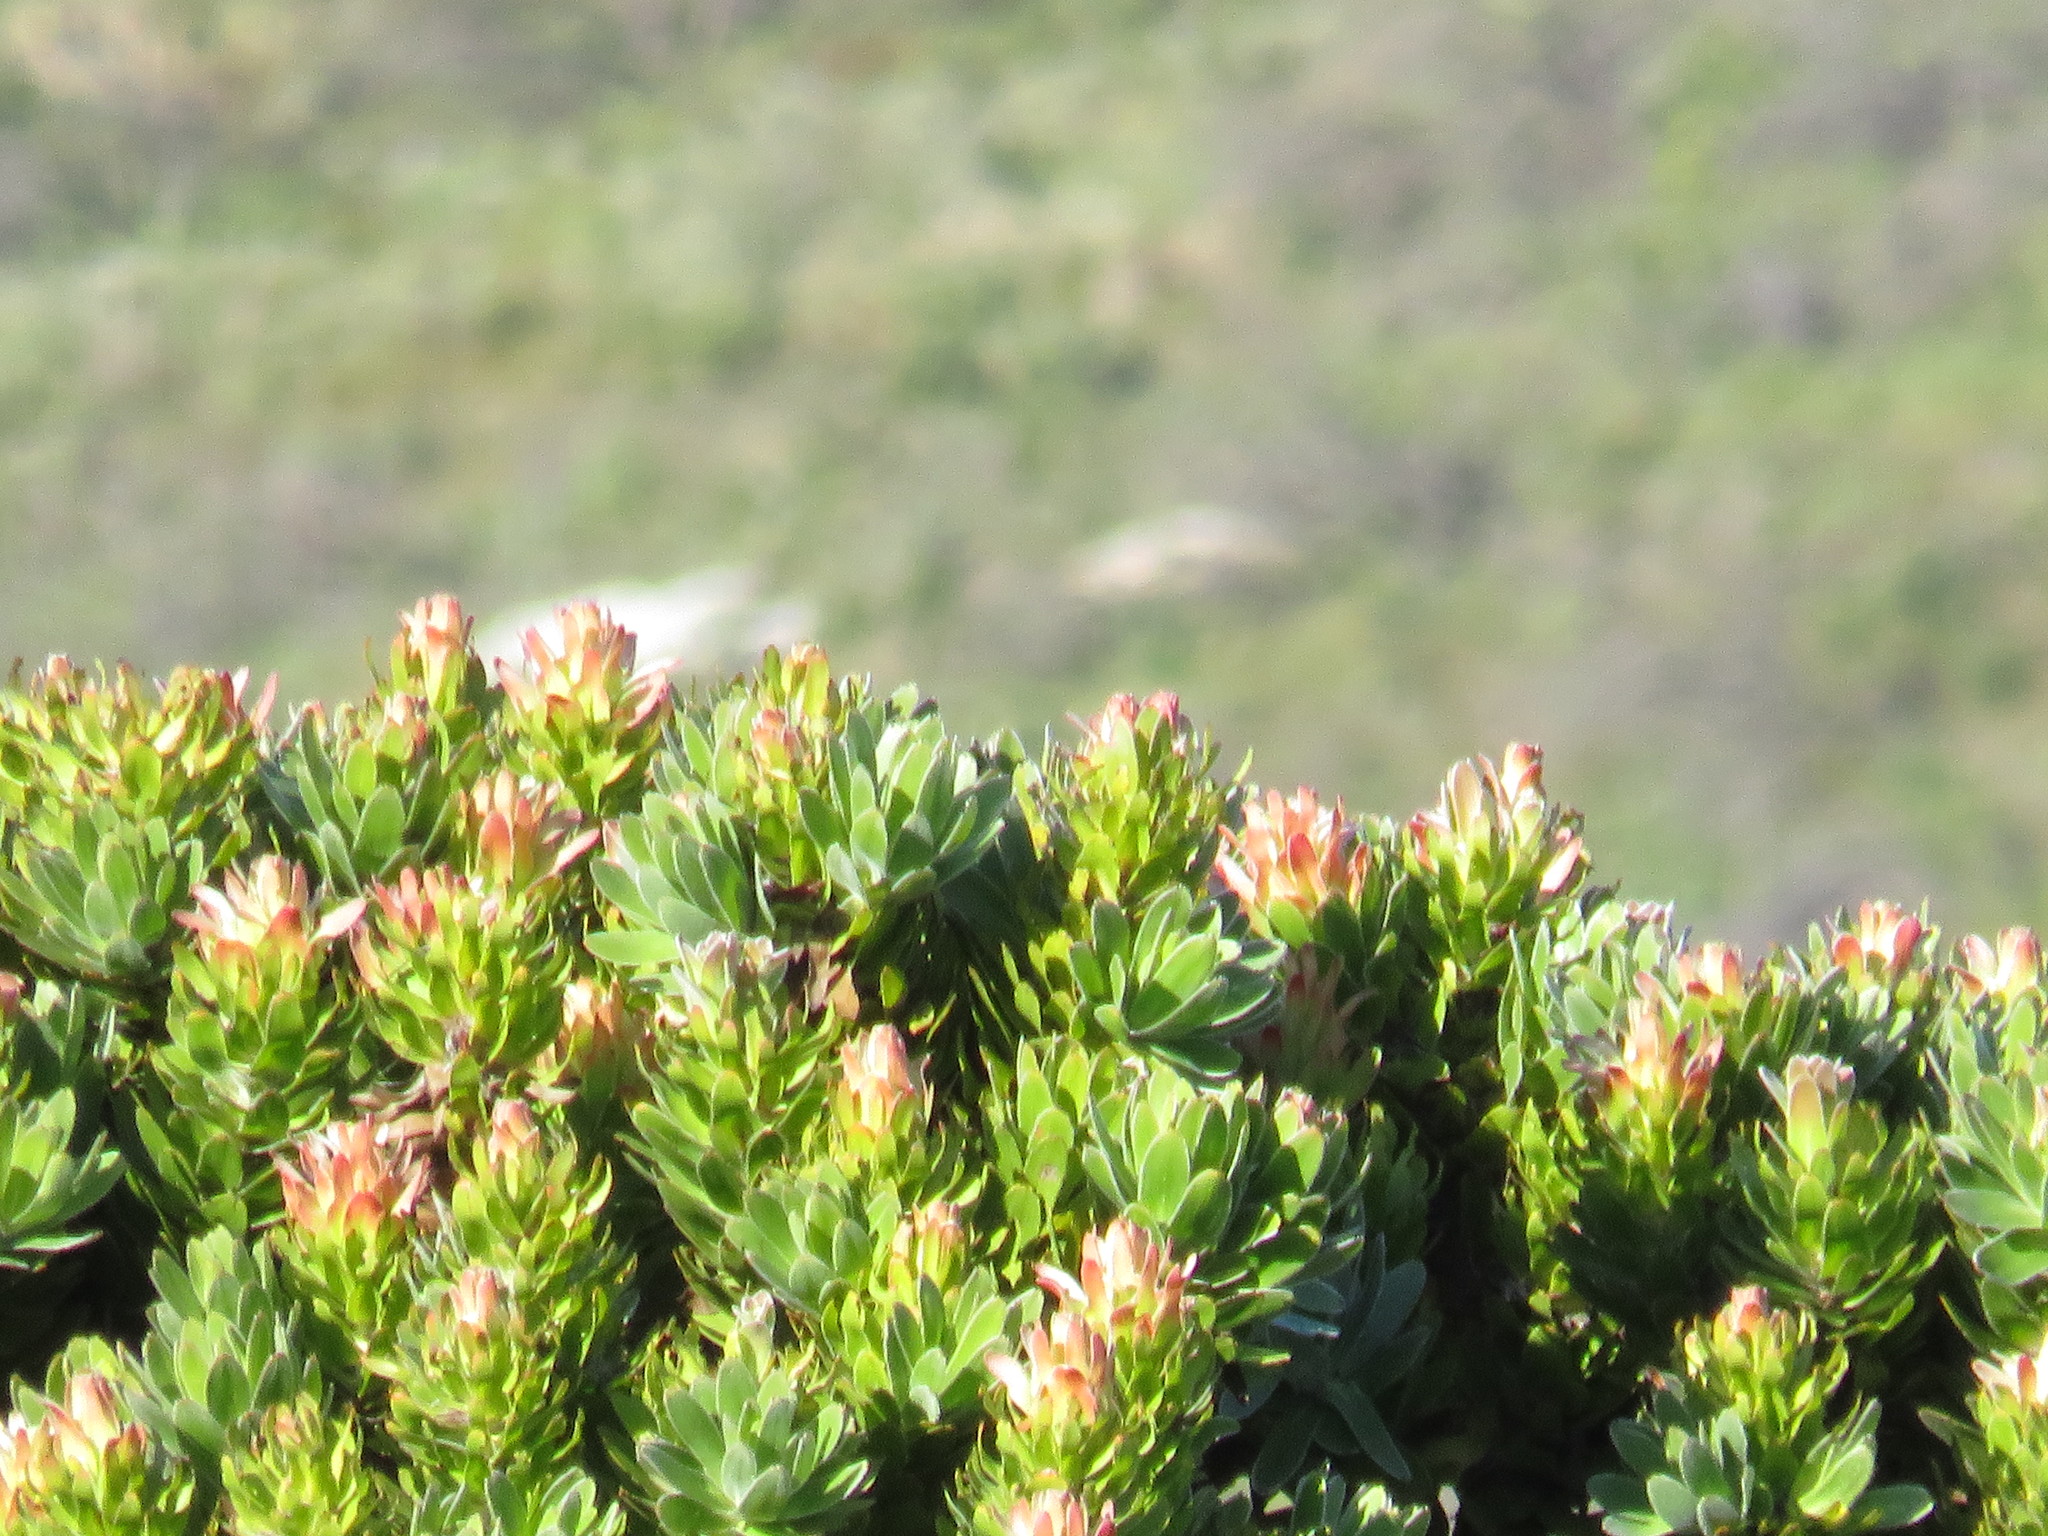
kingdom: Plantae
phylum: Tracheophyta
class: Magnoliopsida
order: Proteales
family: Proteaceae
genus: Mimetes
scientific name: Mimetes fimbriifolius
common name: Fringed bottlebrush
